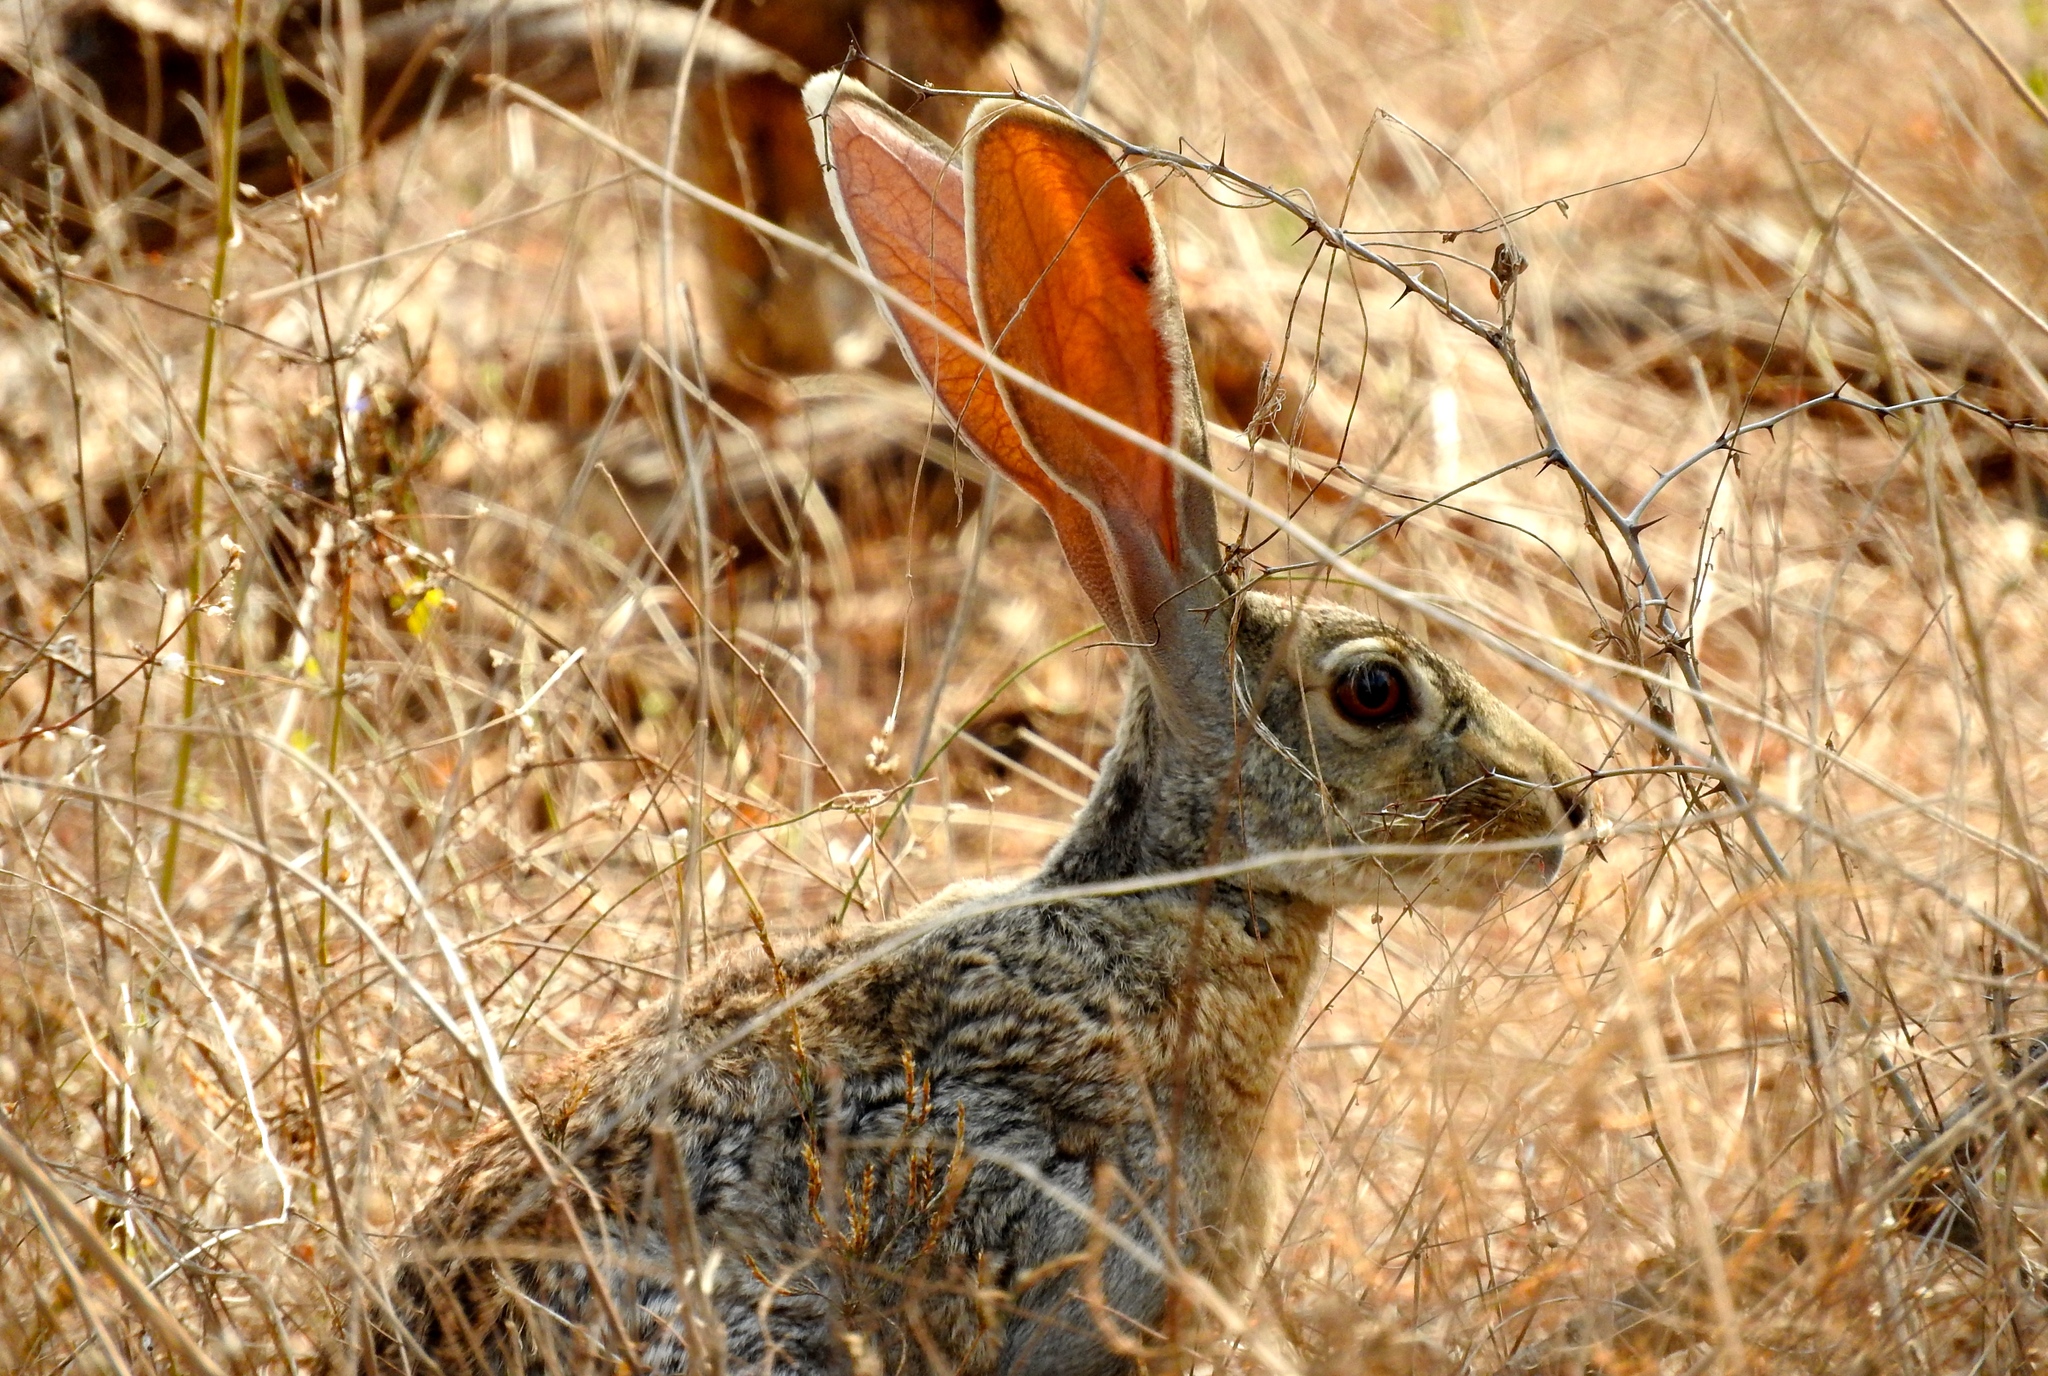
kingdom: Animalia
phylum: Chordata
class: Mammalia
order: Lagomorpha
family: Leporidae
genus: Lepus
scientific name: Lepus alleni
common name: Antelope jackrabbit
